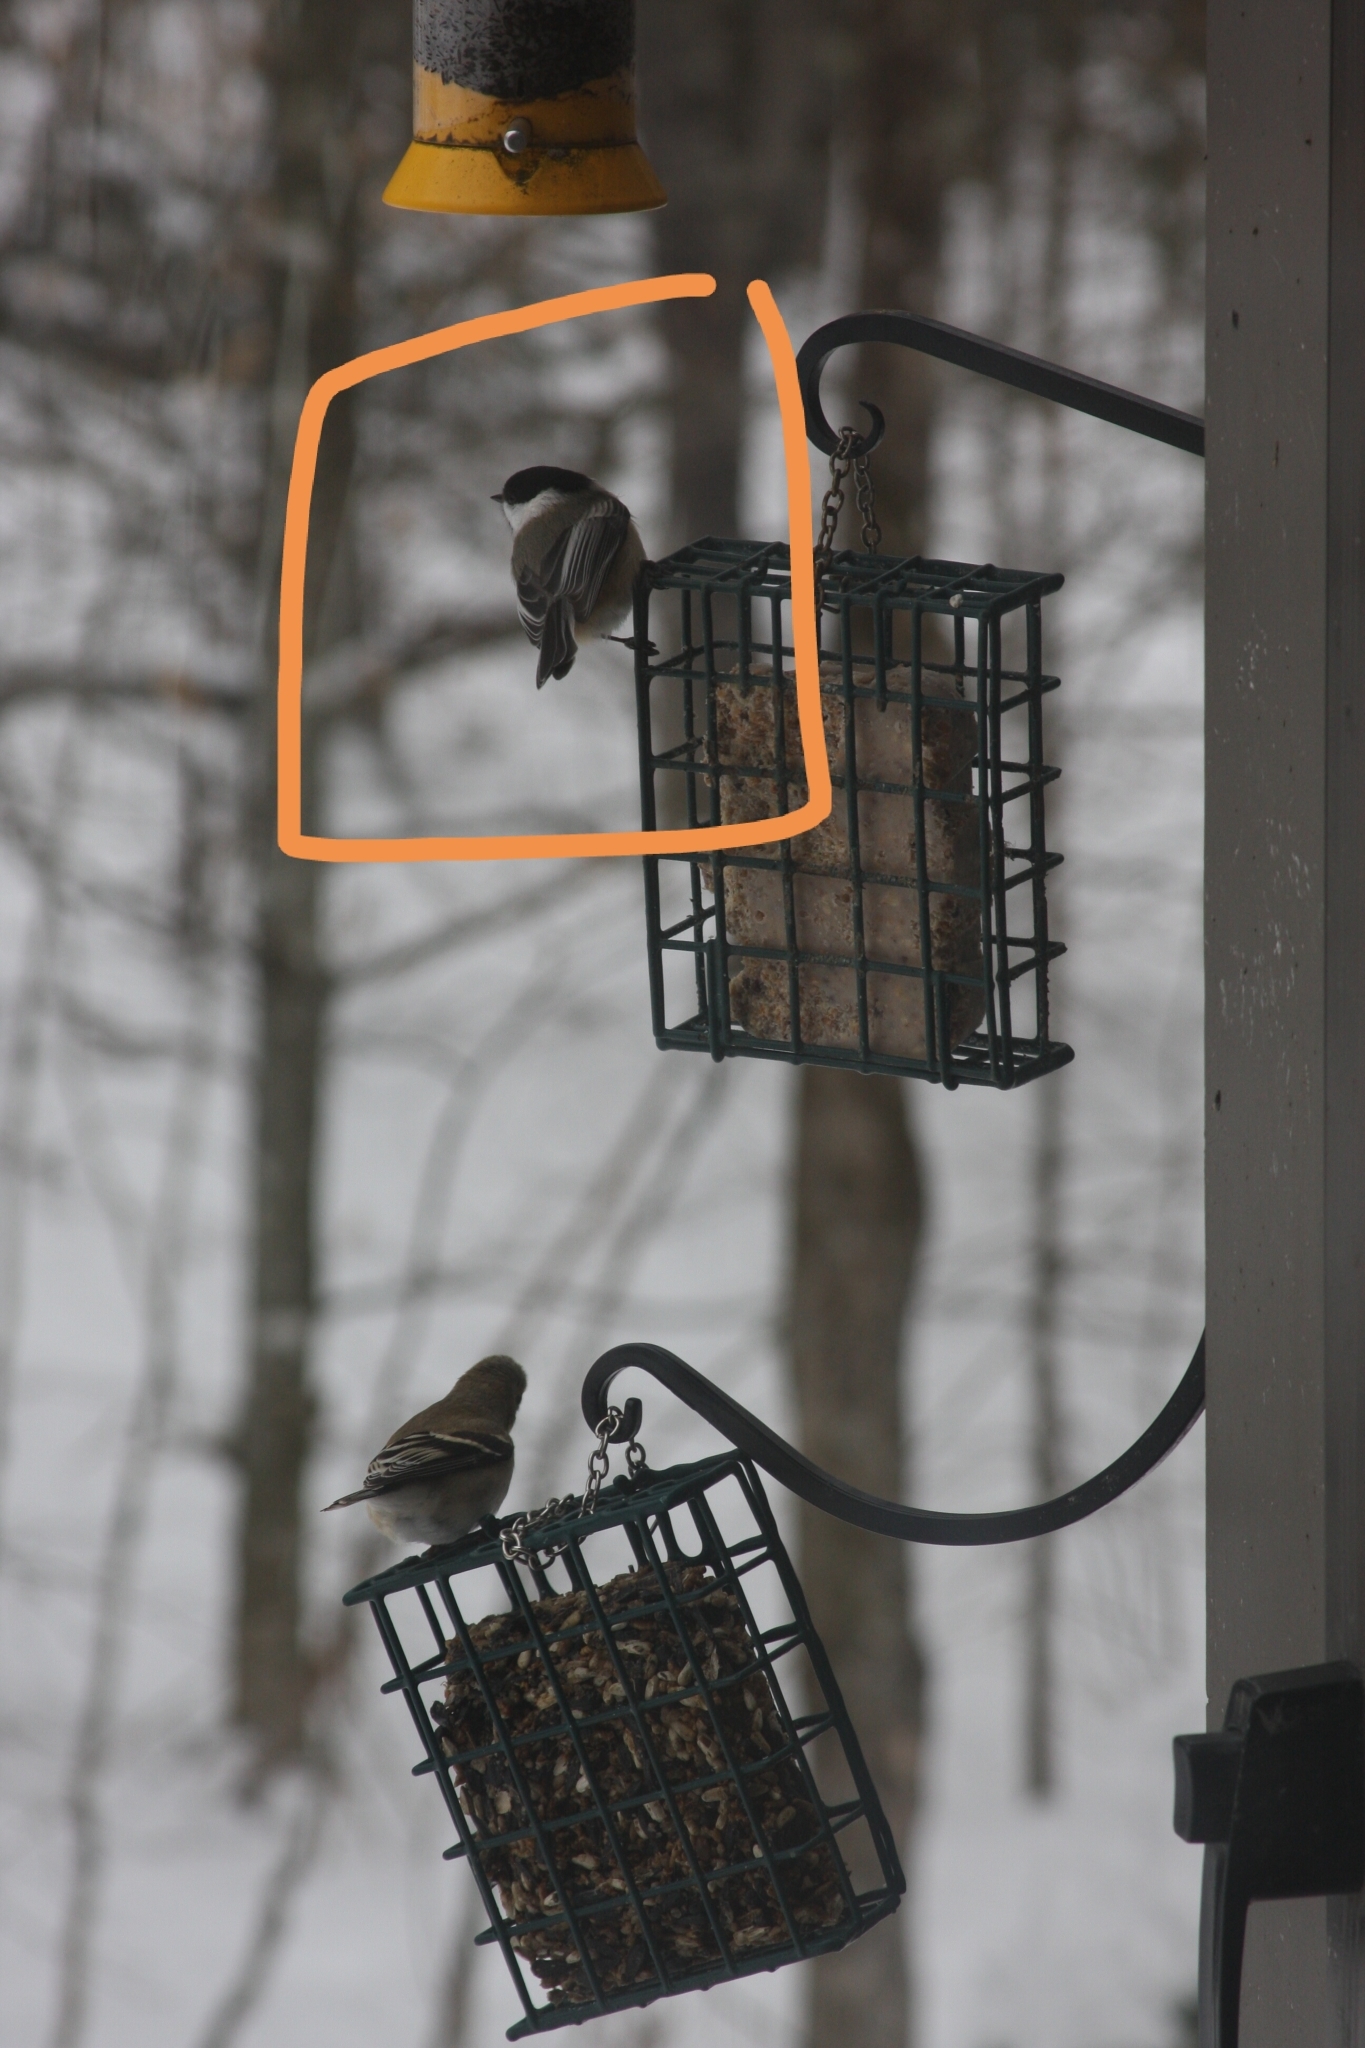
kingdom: Animalia
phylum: Chordata
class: Aves
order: Passeriformes
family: Paridae
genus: Poecile
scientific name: Poecile atricapillus
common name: Black-capped chickadee
